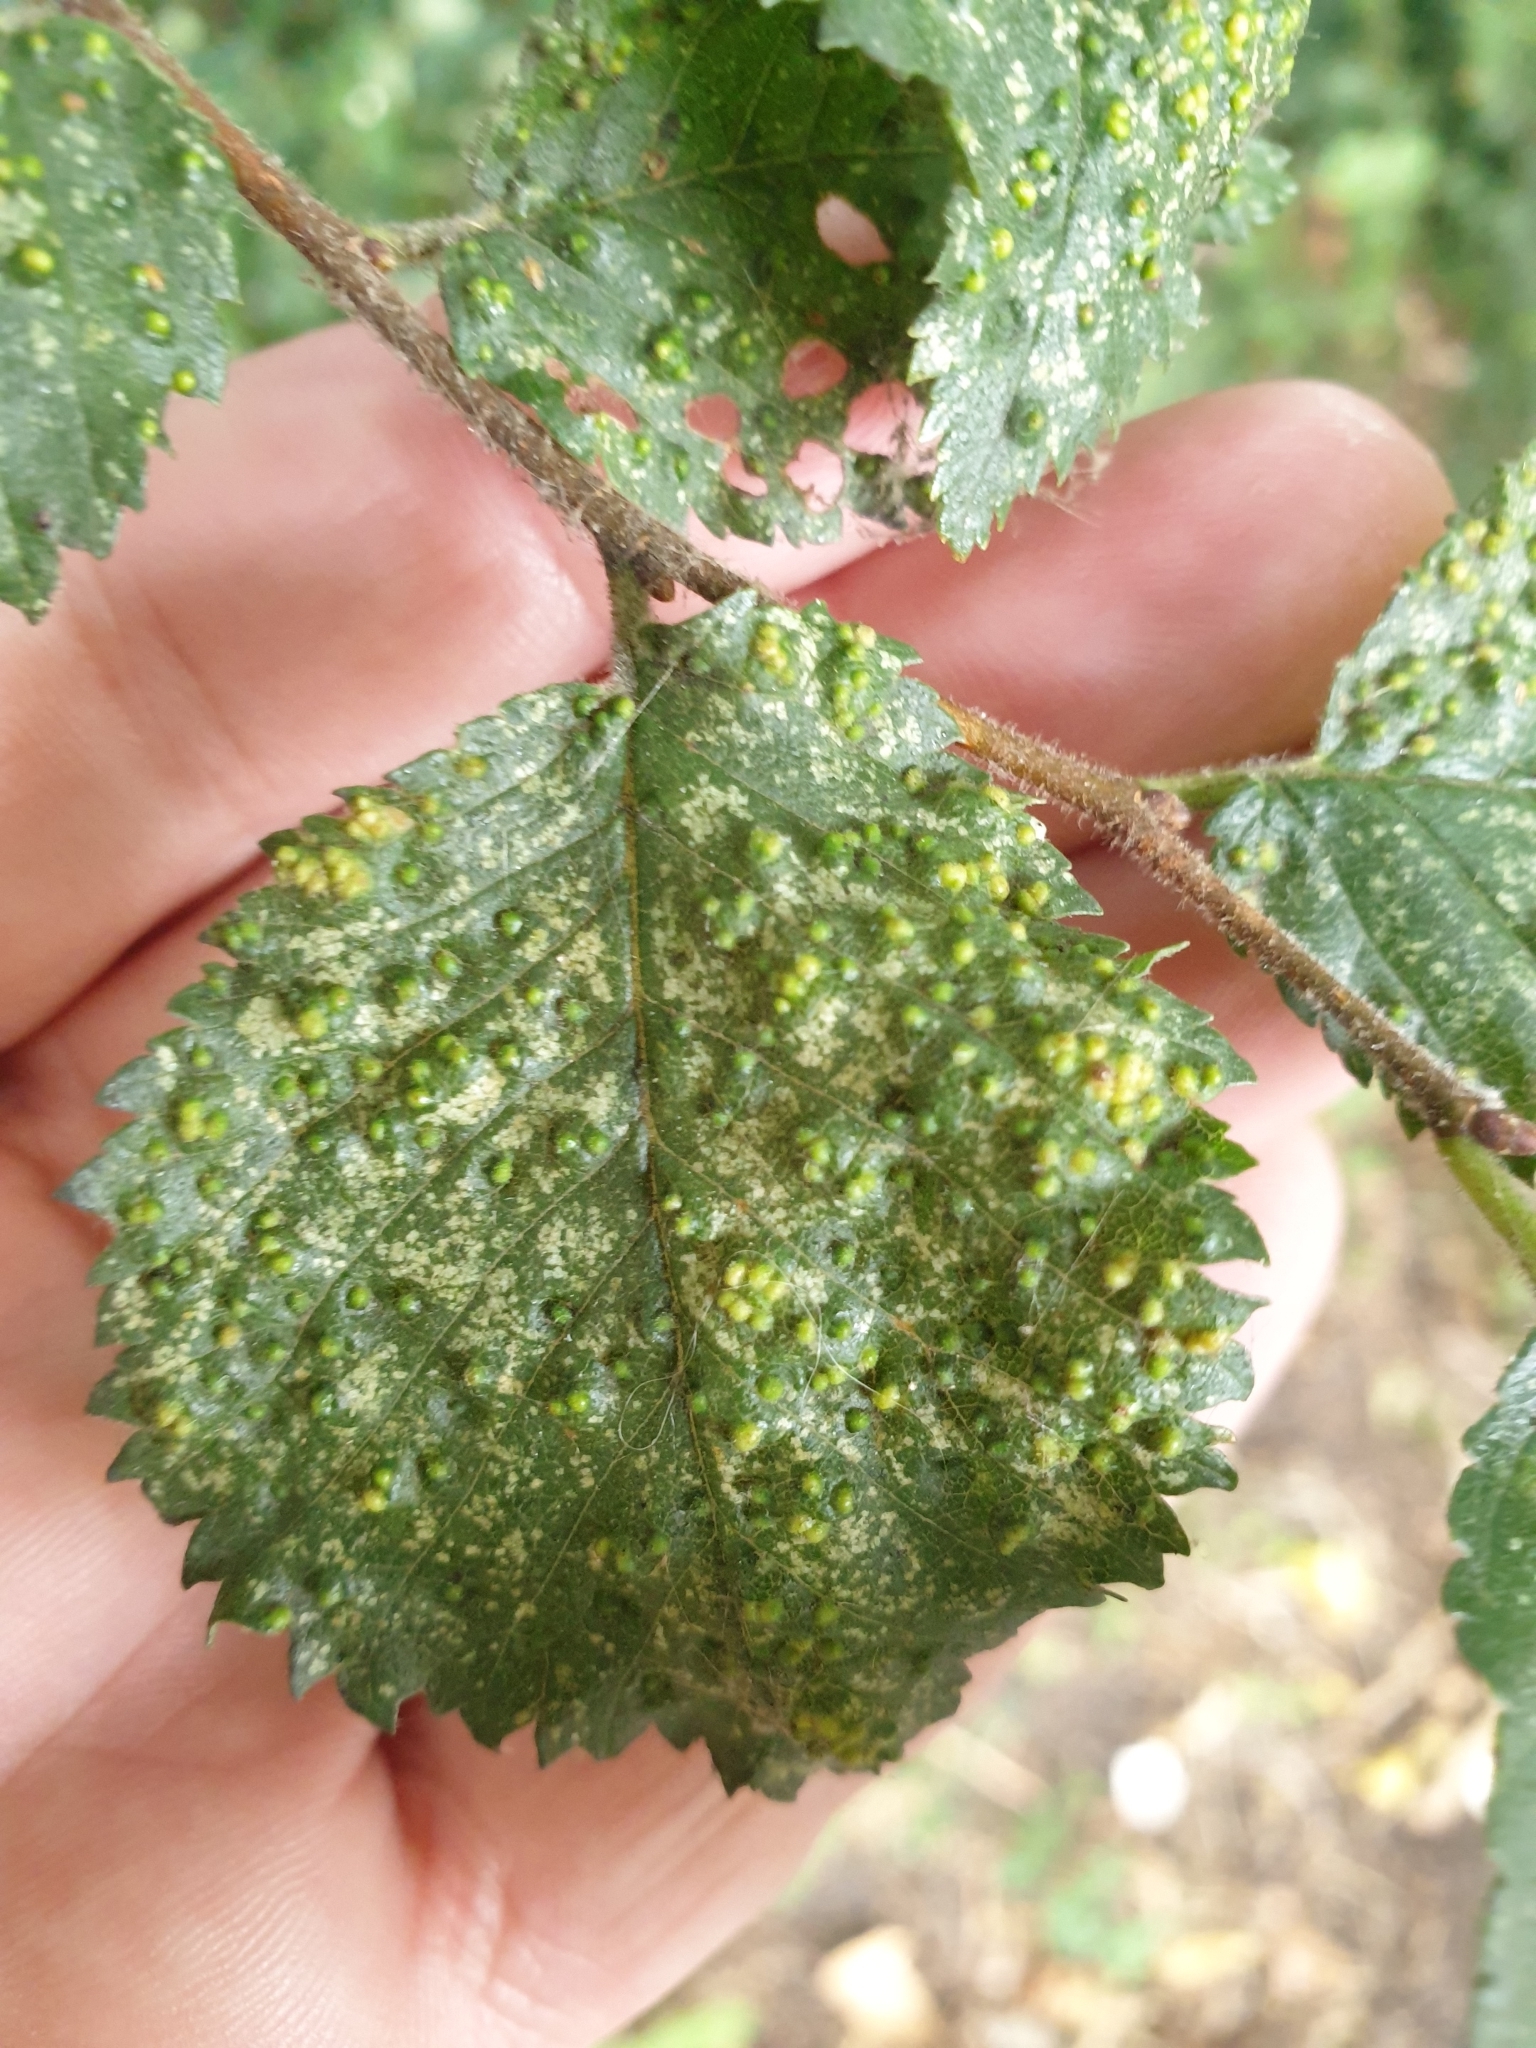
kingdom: Animalia
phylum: Arthropoda
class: Arachnida
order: Trombidiformes
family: Eriophyidae
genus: Aceria
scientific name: Aceria brevipunctata
